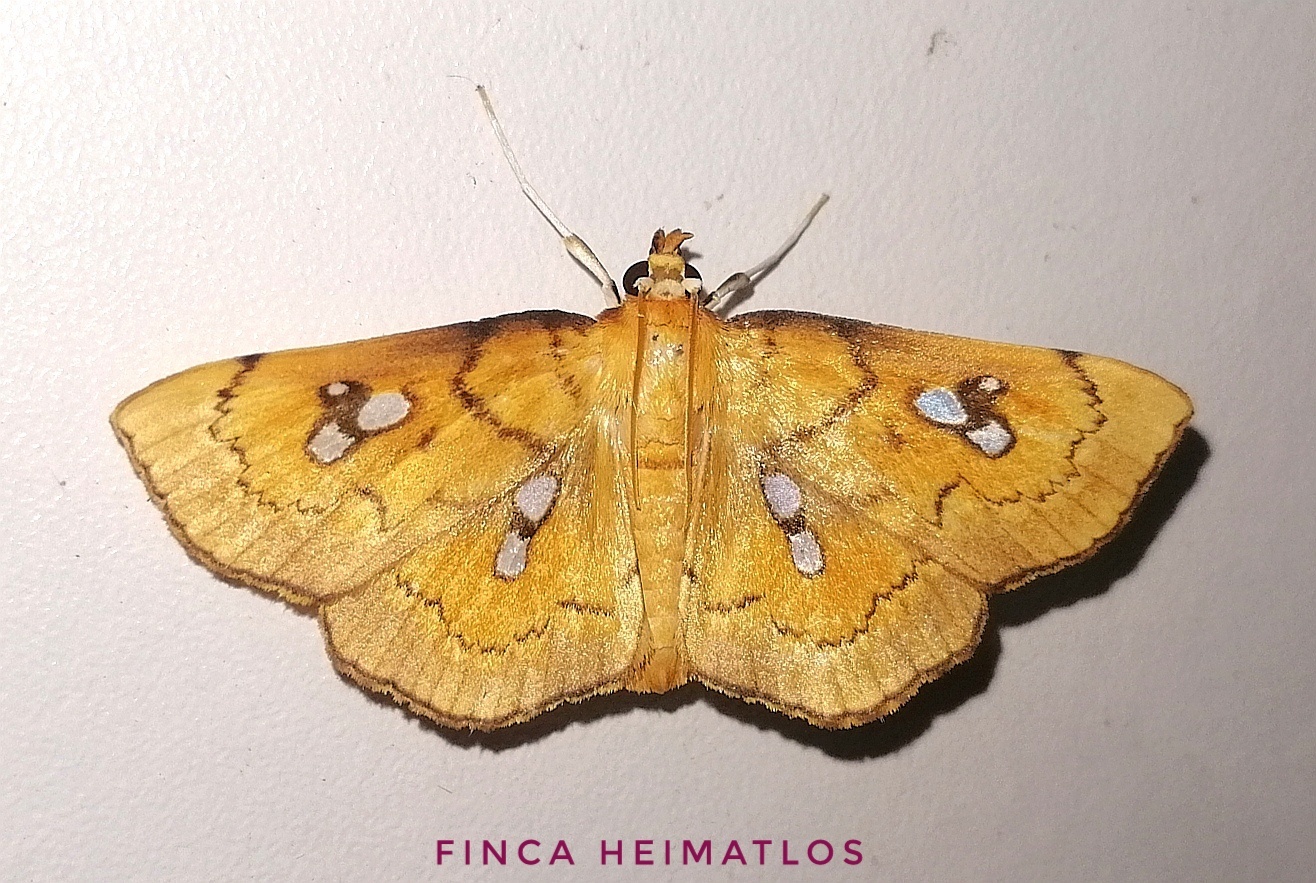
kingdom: Animalia
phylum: Arthropoda
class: Insecta
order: Lepidoptera
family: Crambidae
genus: Cacographis
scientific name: Cacographis osteolalis
